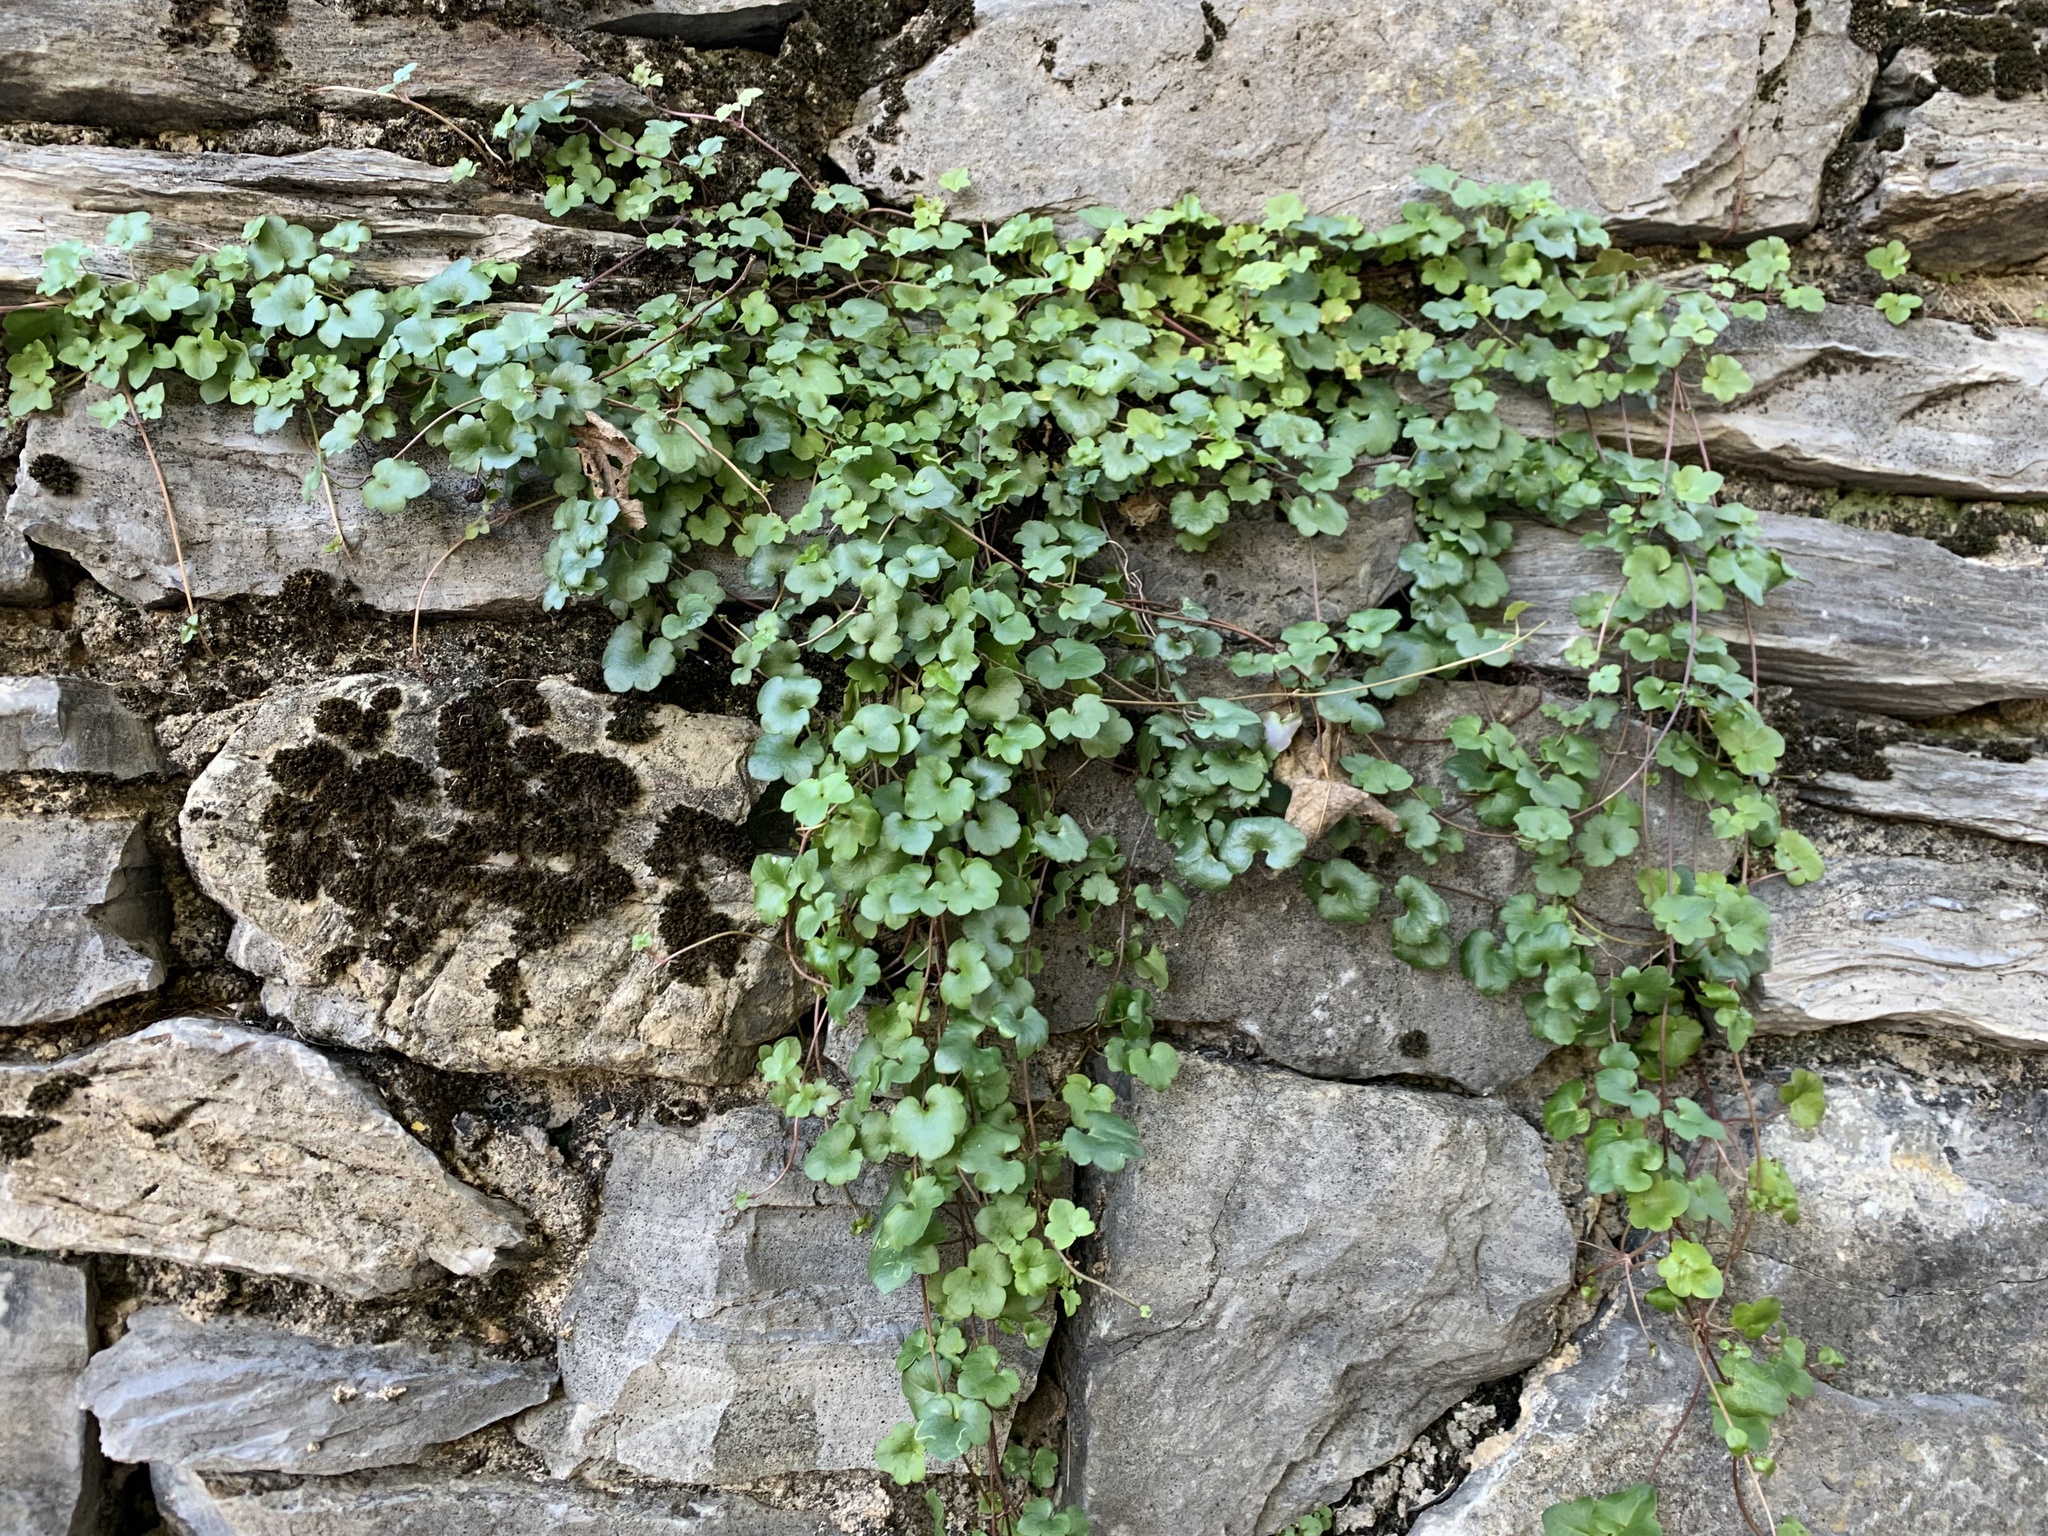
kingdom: Plantae
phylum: Tracheophyta
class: Magnoliopsida
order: Lamiales
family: Plantaginaceae
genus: Cymbalaria
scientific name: Cymbalaria muralis
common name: Ivy-leaved toadflax
